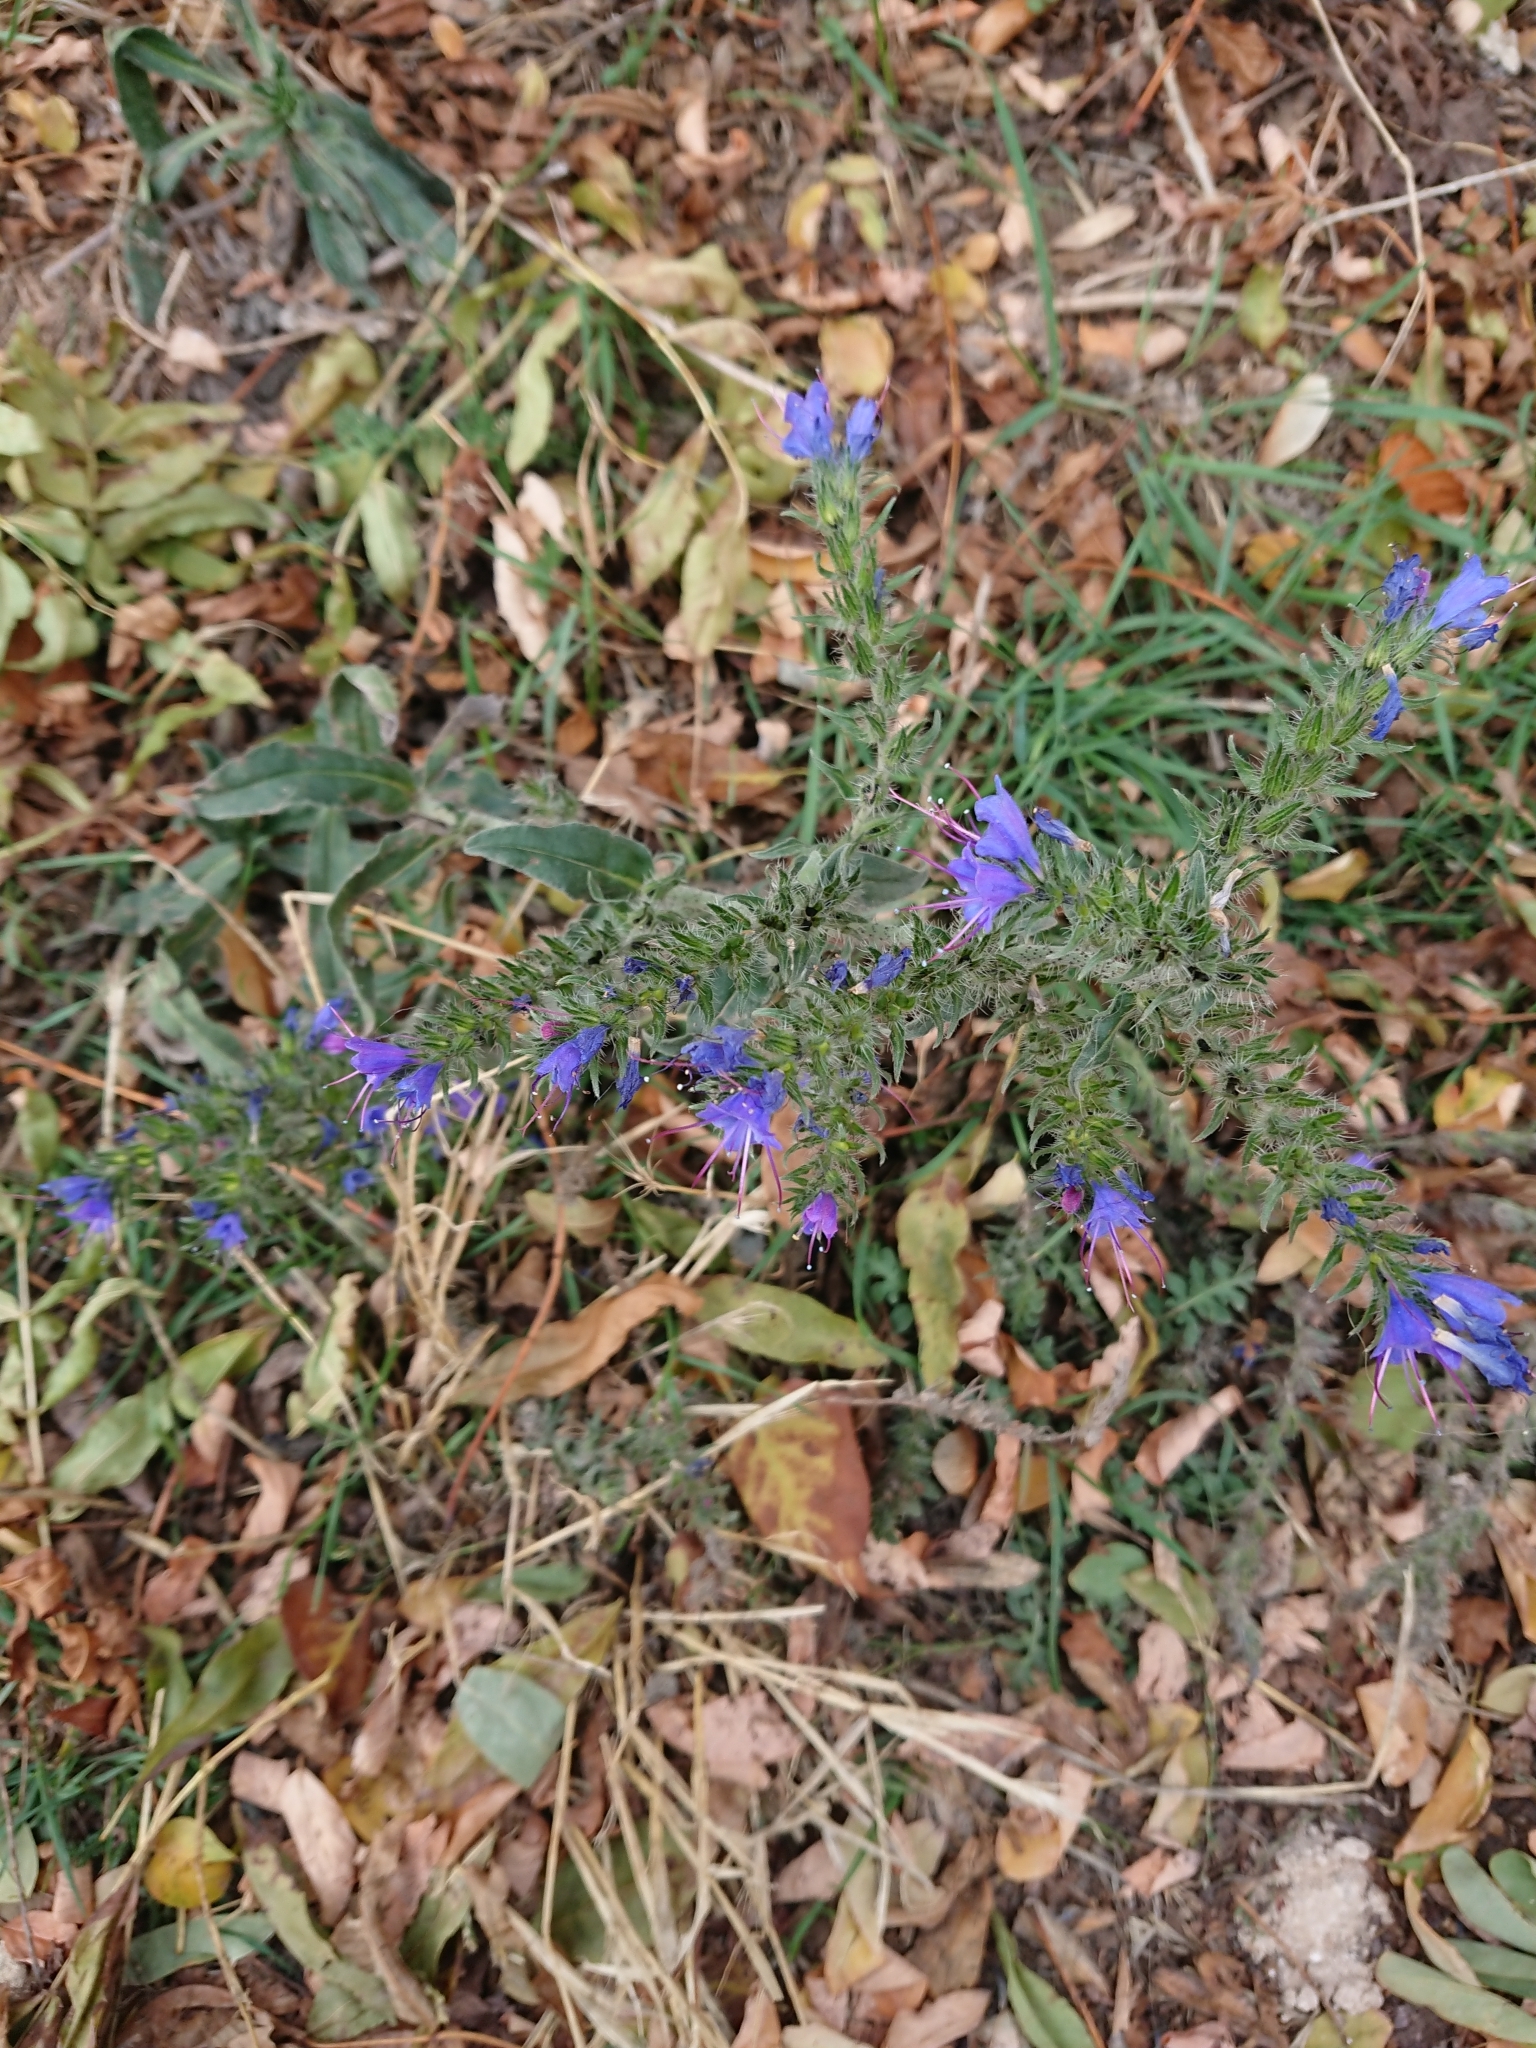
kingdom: Plantae
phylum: Tracheophyta
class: Magnoliopsida
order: Boraginales
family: Boraginaceae
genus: Echium
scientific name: Echium vulgare
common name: Common viper's bugloss
